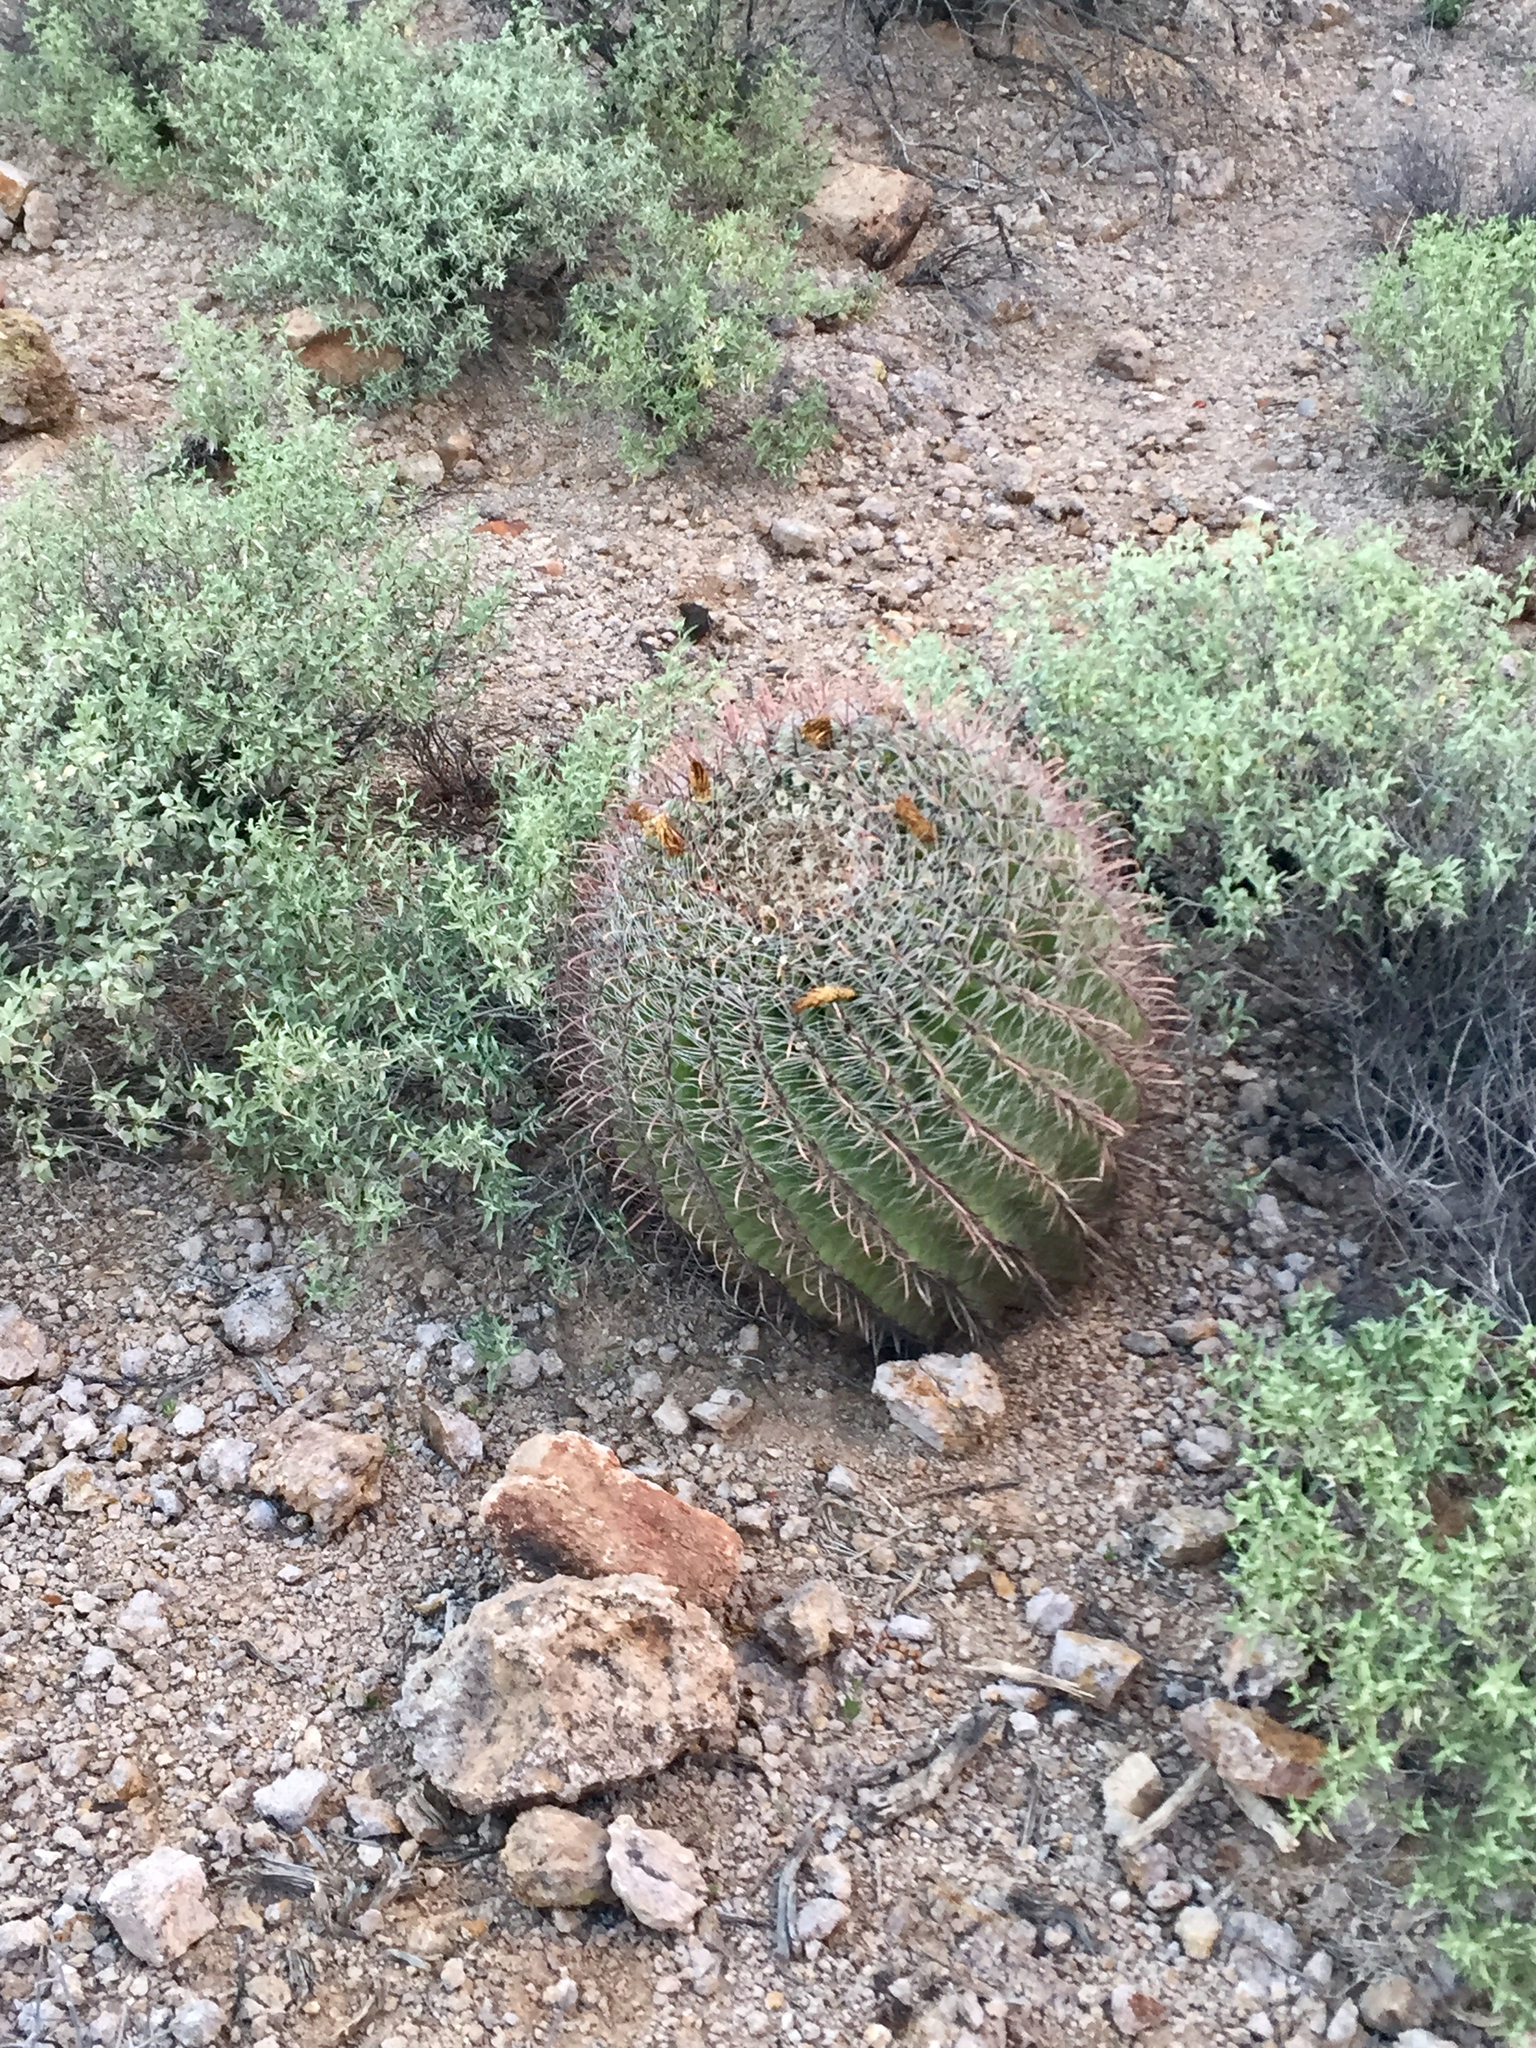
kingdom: Plantae
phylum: Tracheophyta
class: Magnoliopsida
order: Caryophyllales
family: Cactaceae
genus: Ferocactus
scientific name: Ferocactus wislizeni
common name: Candy barrel cactus
